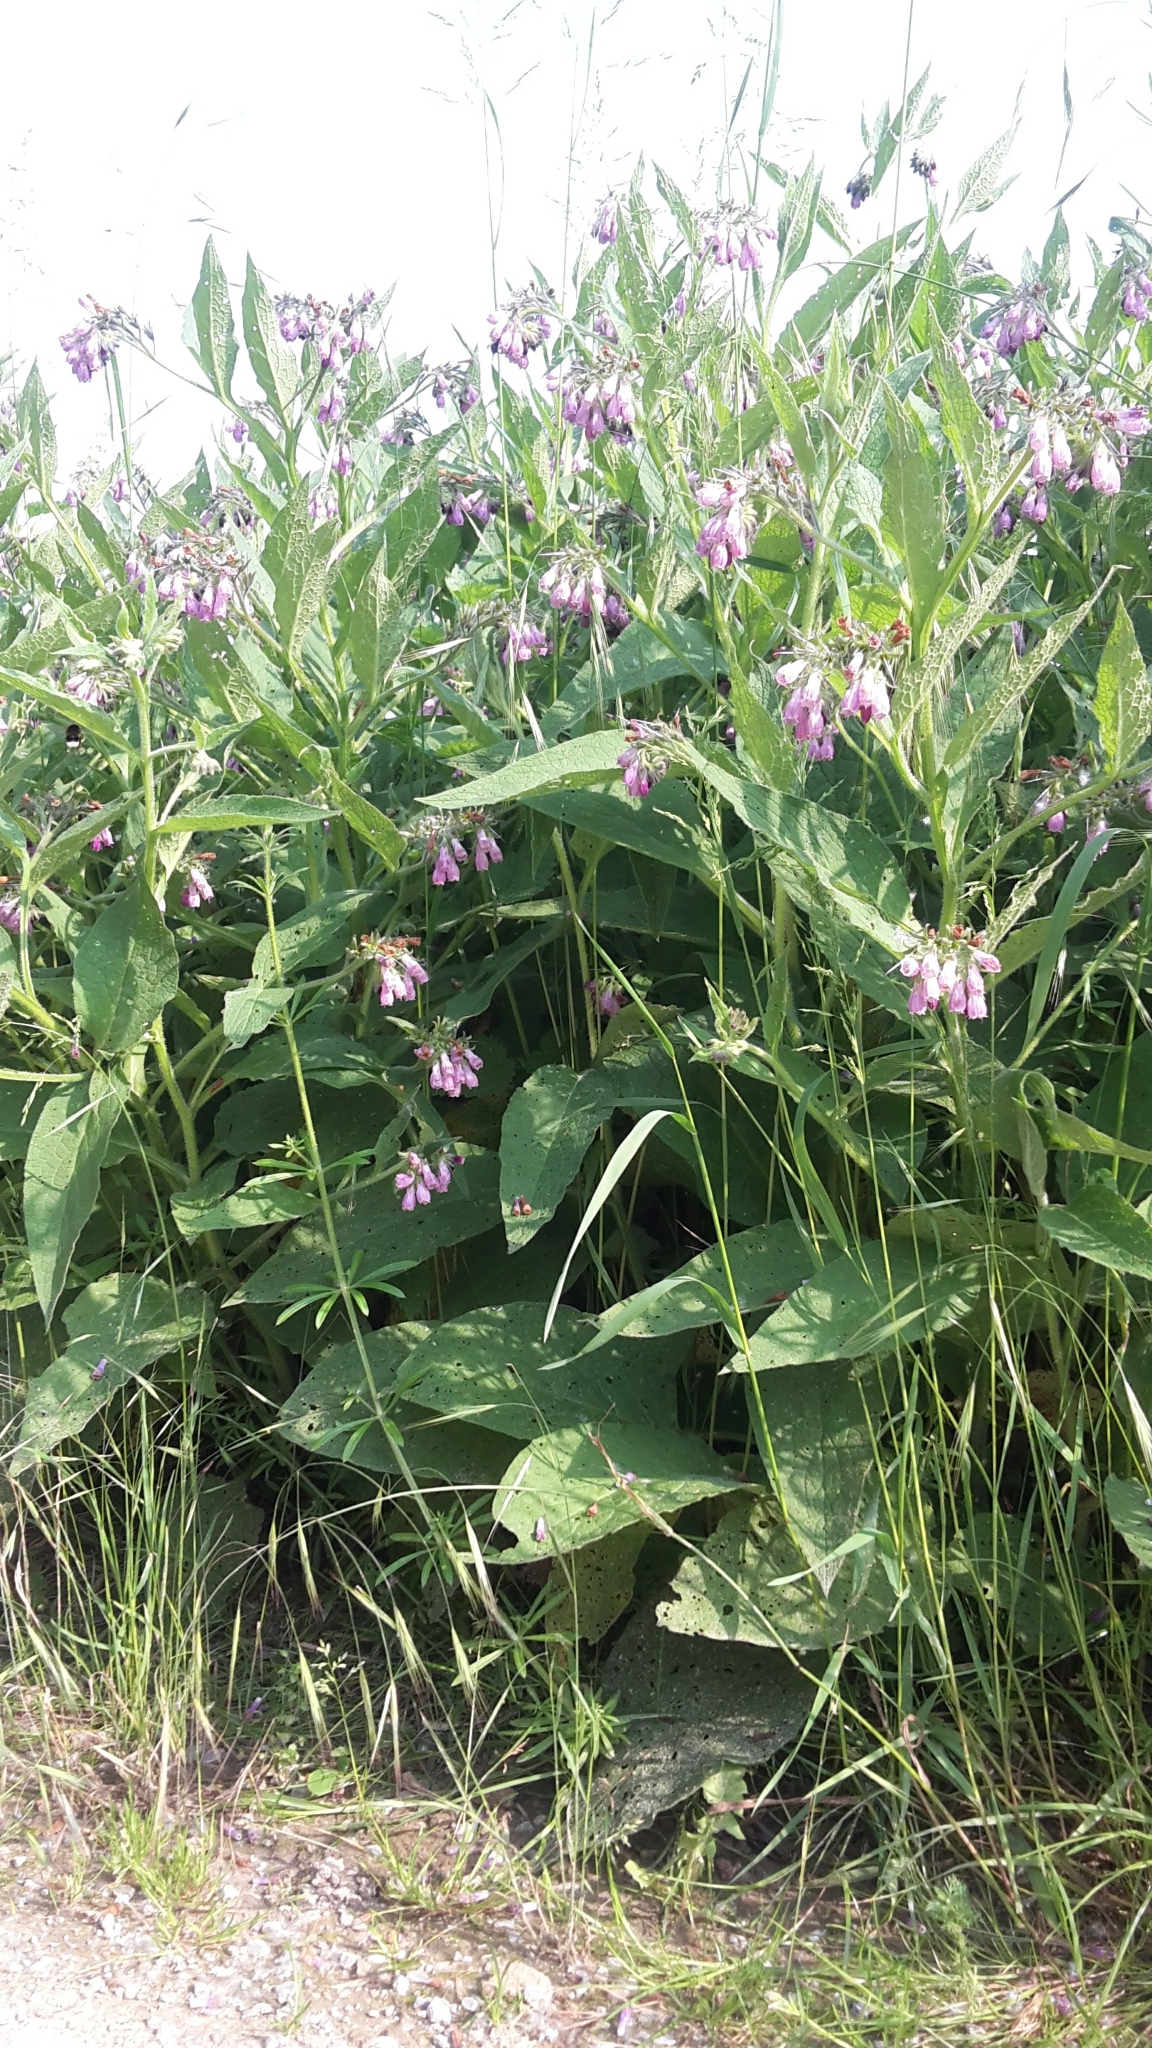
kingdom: Plantae
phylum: Tracheophyta
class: Magnoliopsida
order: Boraginales
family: Boraginaceae
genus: Symphytum
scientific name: Symphytum officinale
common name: Common comfrey
